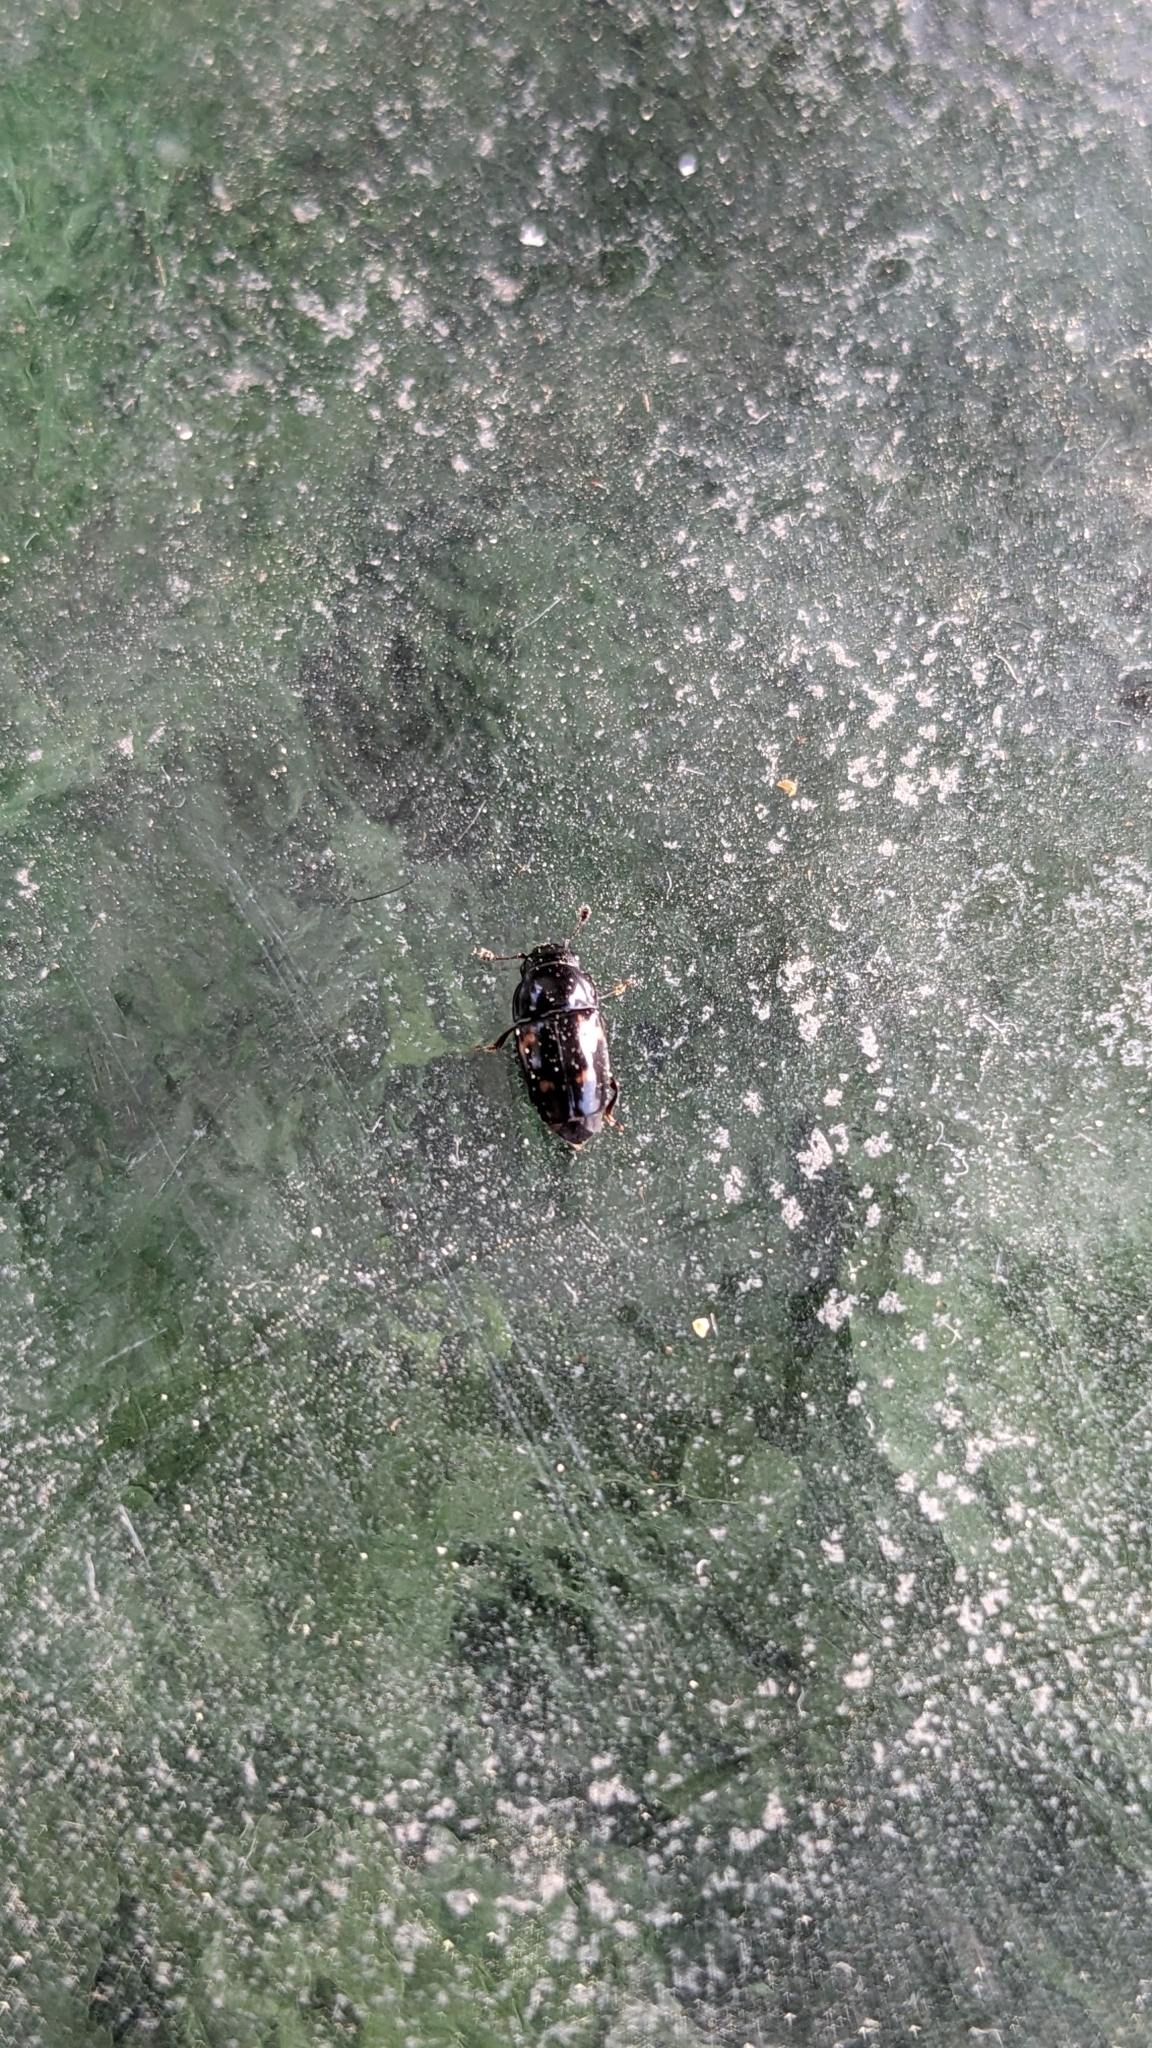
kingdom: Animalia
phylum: Arthropoda
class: Insecta
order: Coleoptera
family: Nitidulidae
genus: Glischrochilus
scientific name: Glischrochilus quadrisignatus
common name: Picnic beetle
